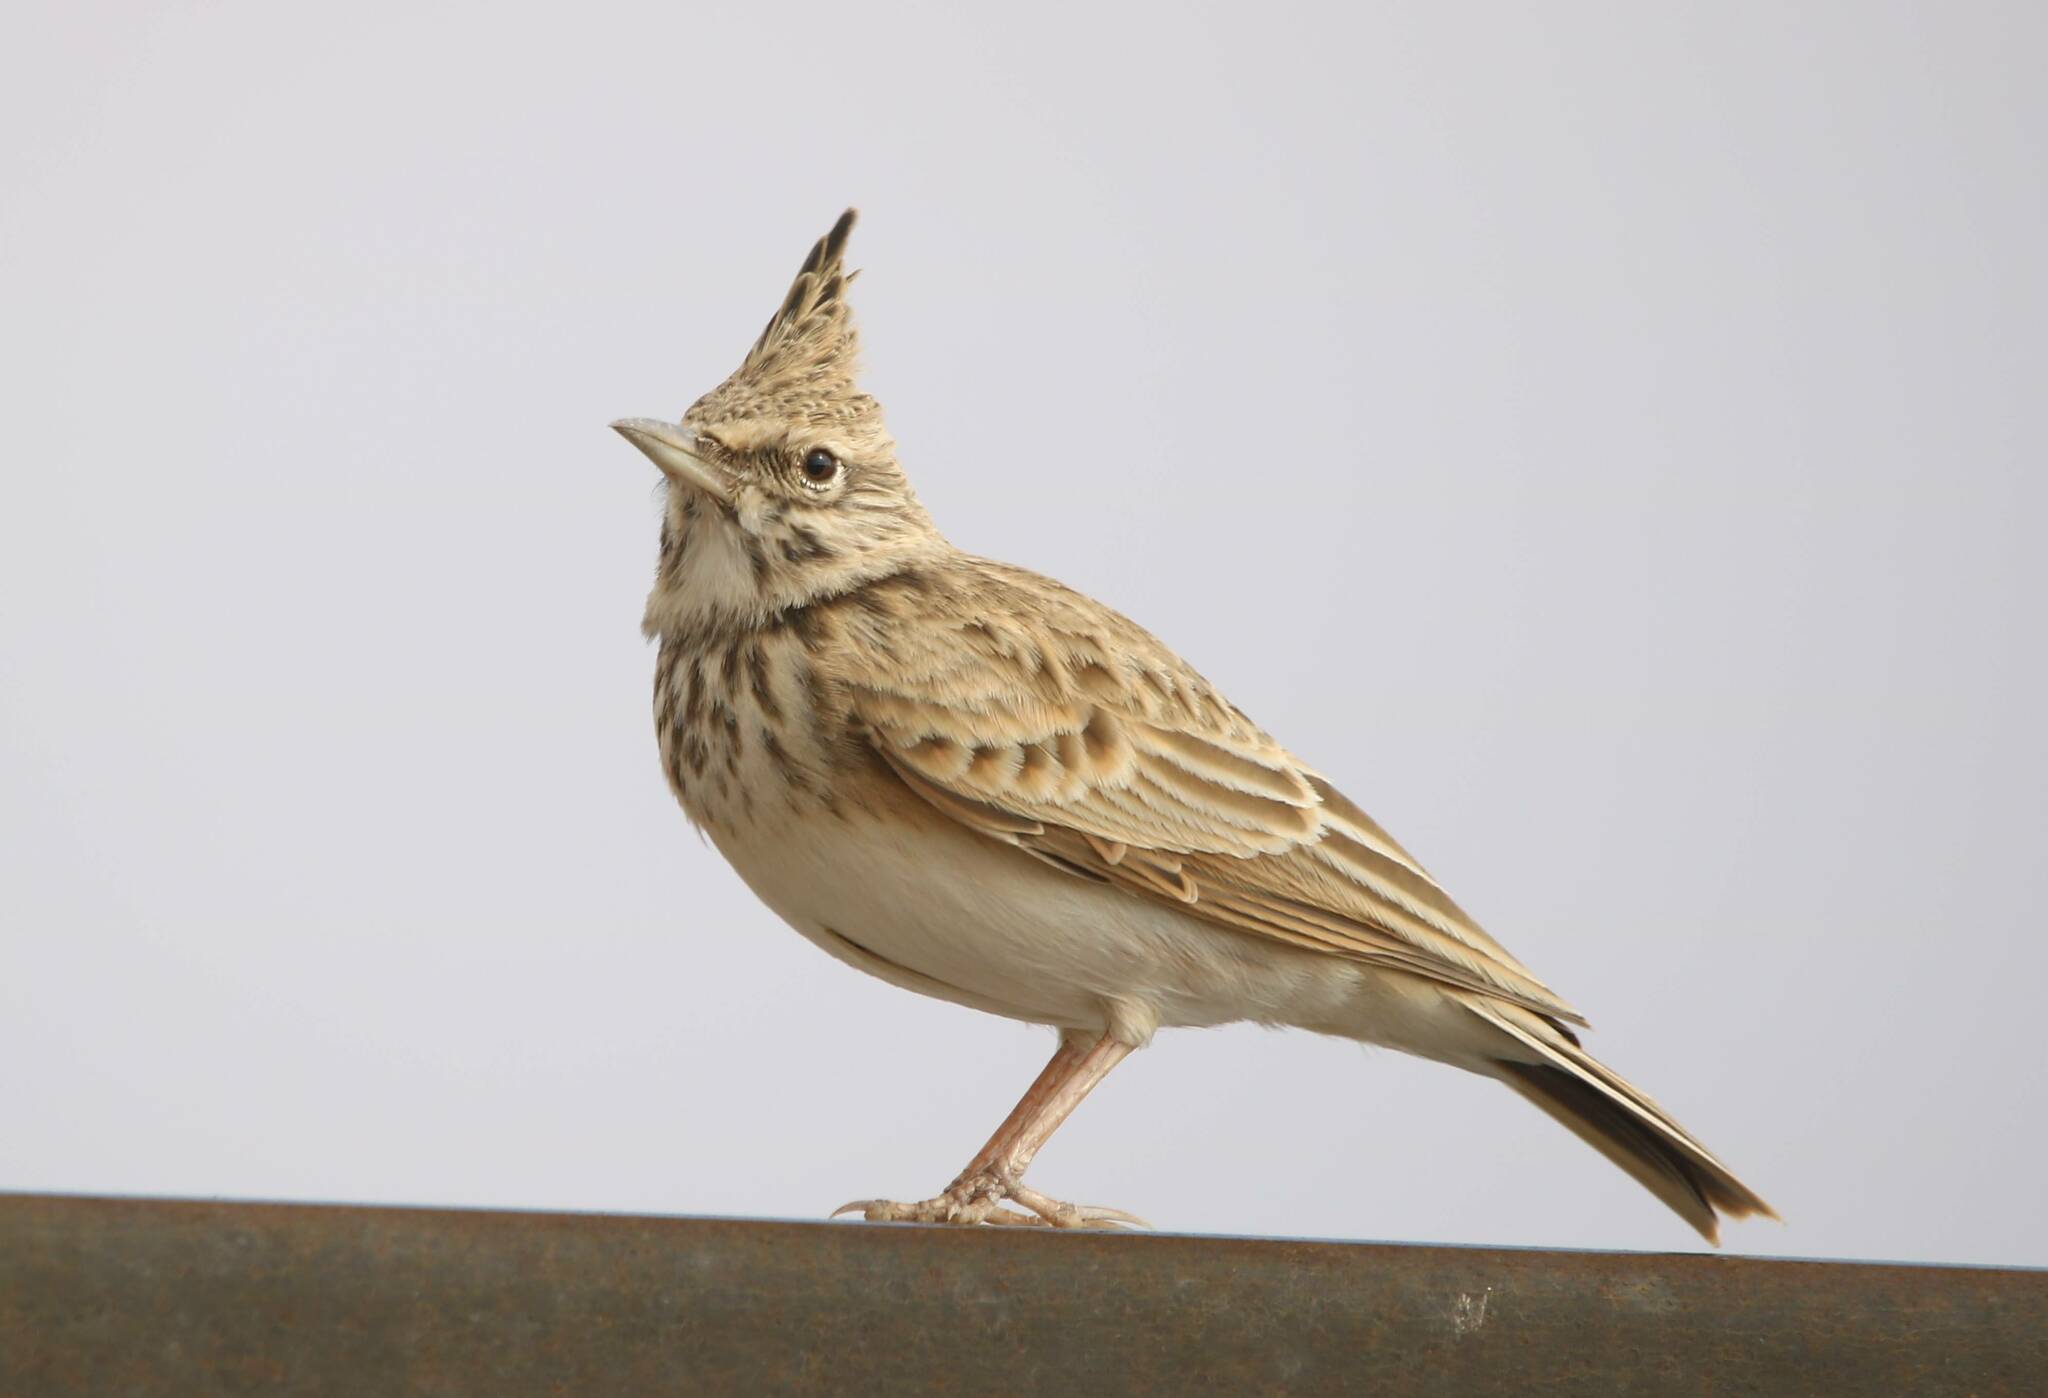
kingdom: Animalia
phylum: Chordata
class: Aves
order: Passeriformes
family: Alaudidae
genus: Galerida
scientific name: Galerida cristata
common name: Crested lark
